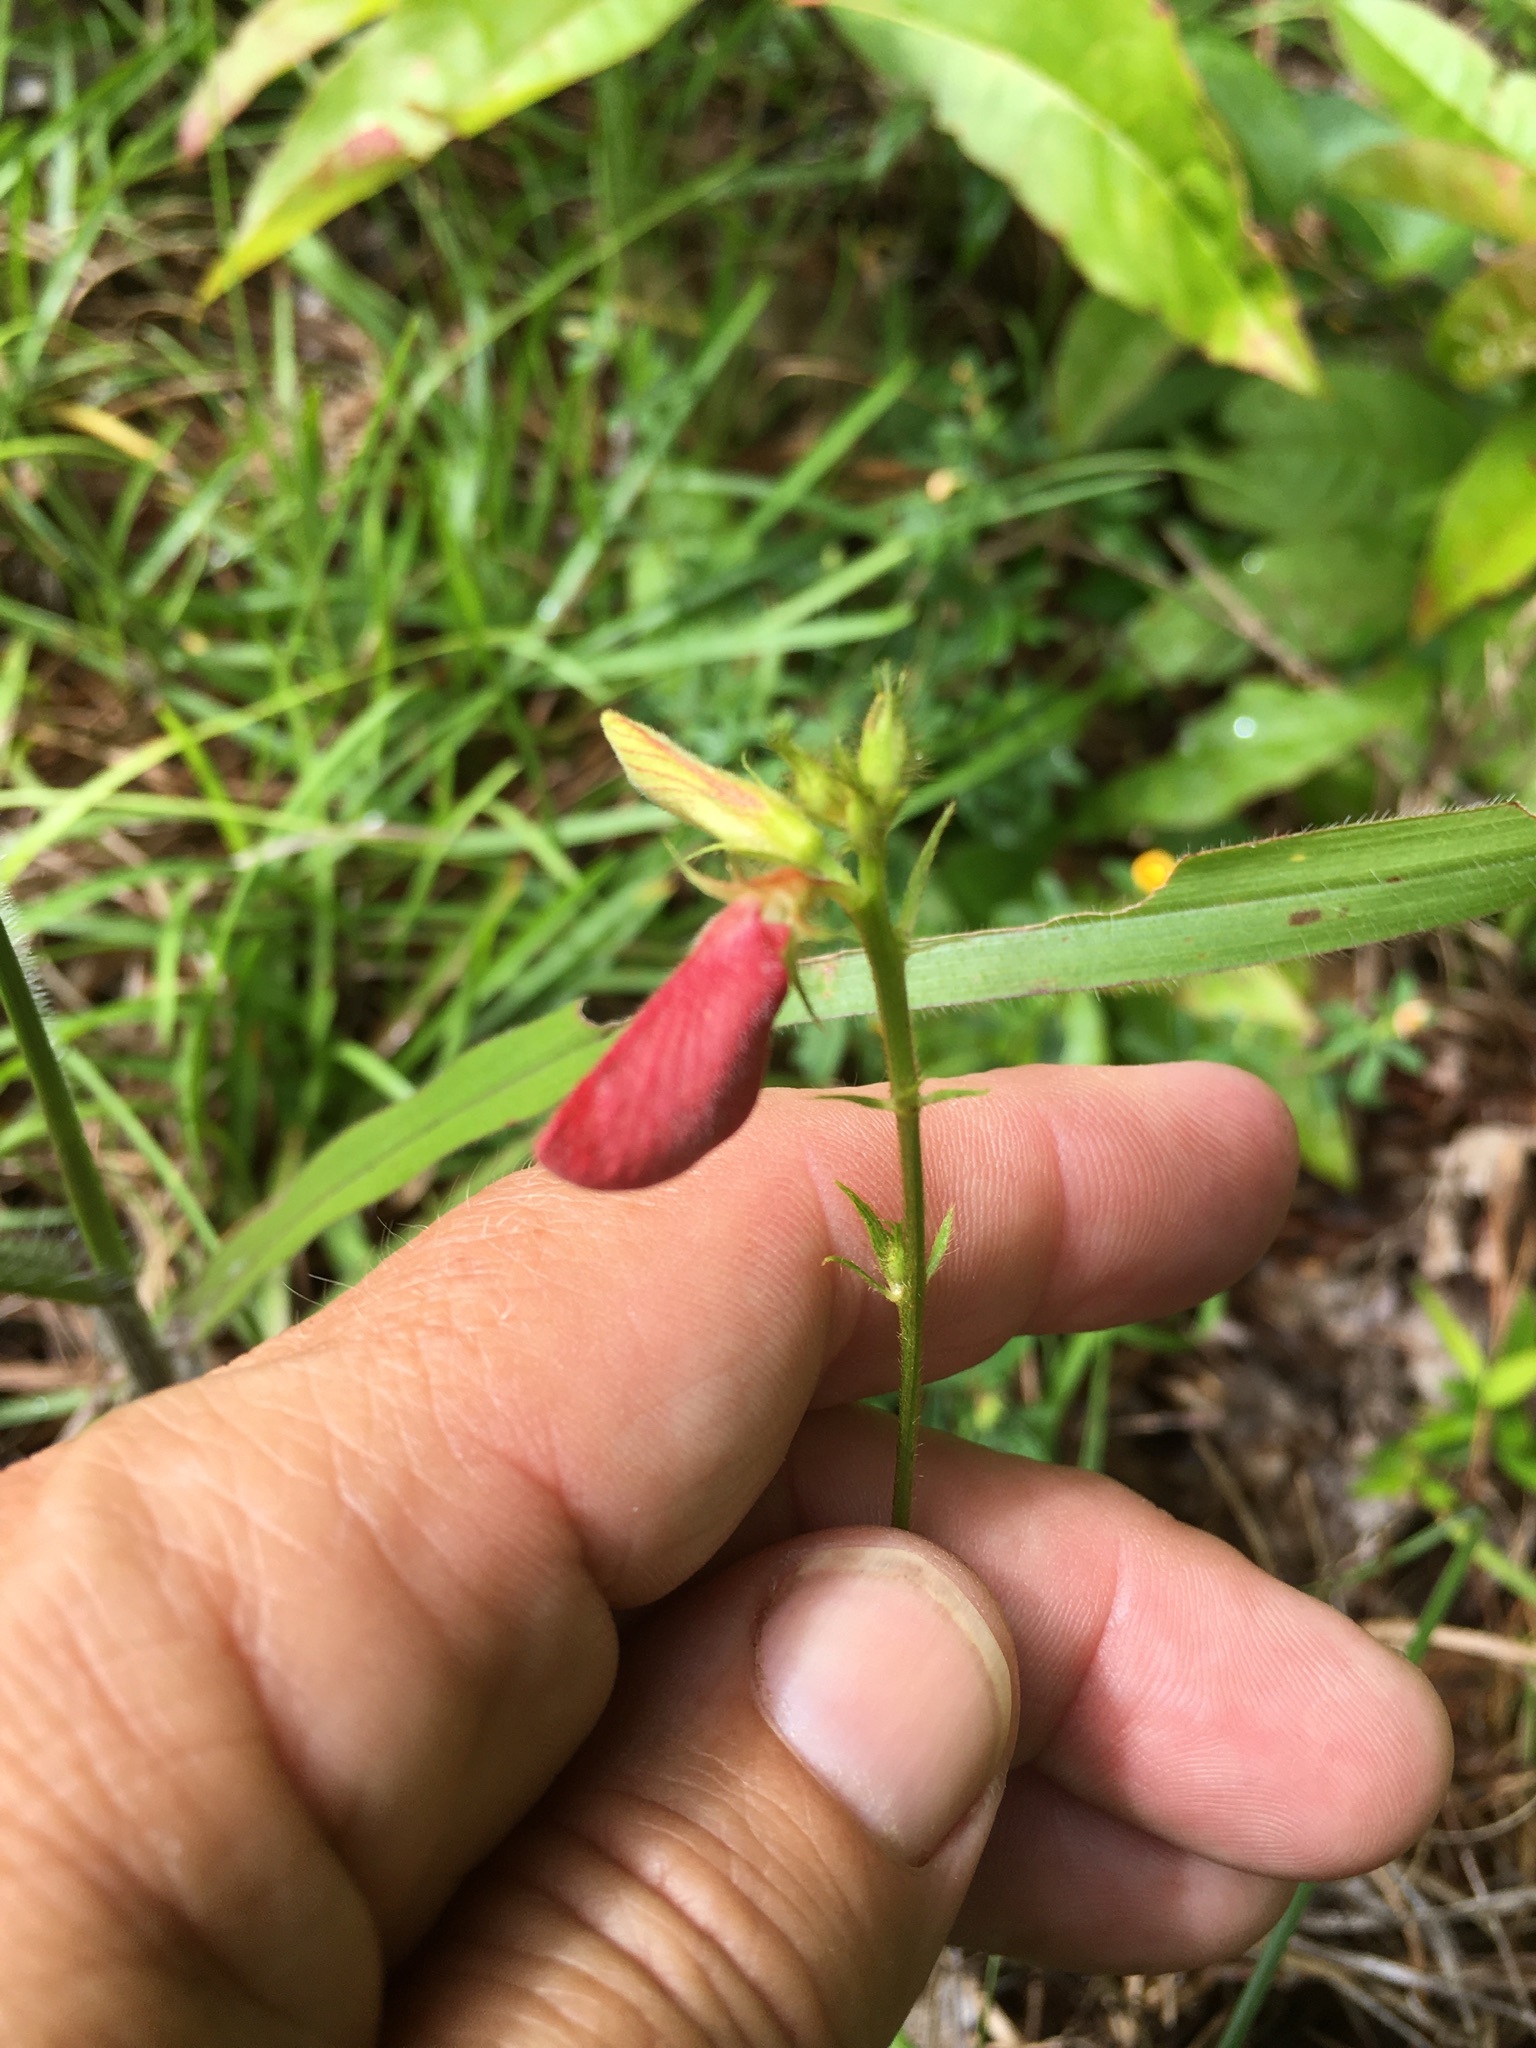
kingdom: Plantae
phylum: Tracheophyta
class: Magnoliopsida
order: Fabales
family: Fabaceae
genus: Tephrosia
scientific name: Tephrosia spicata
